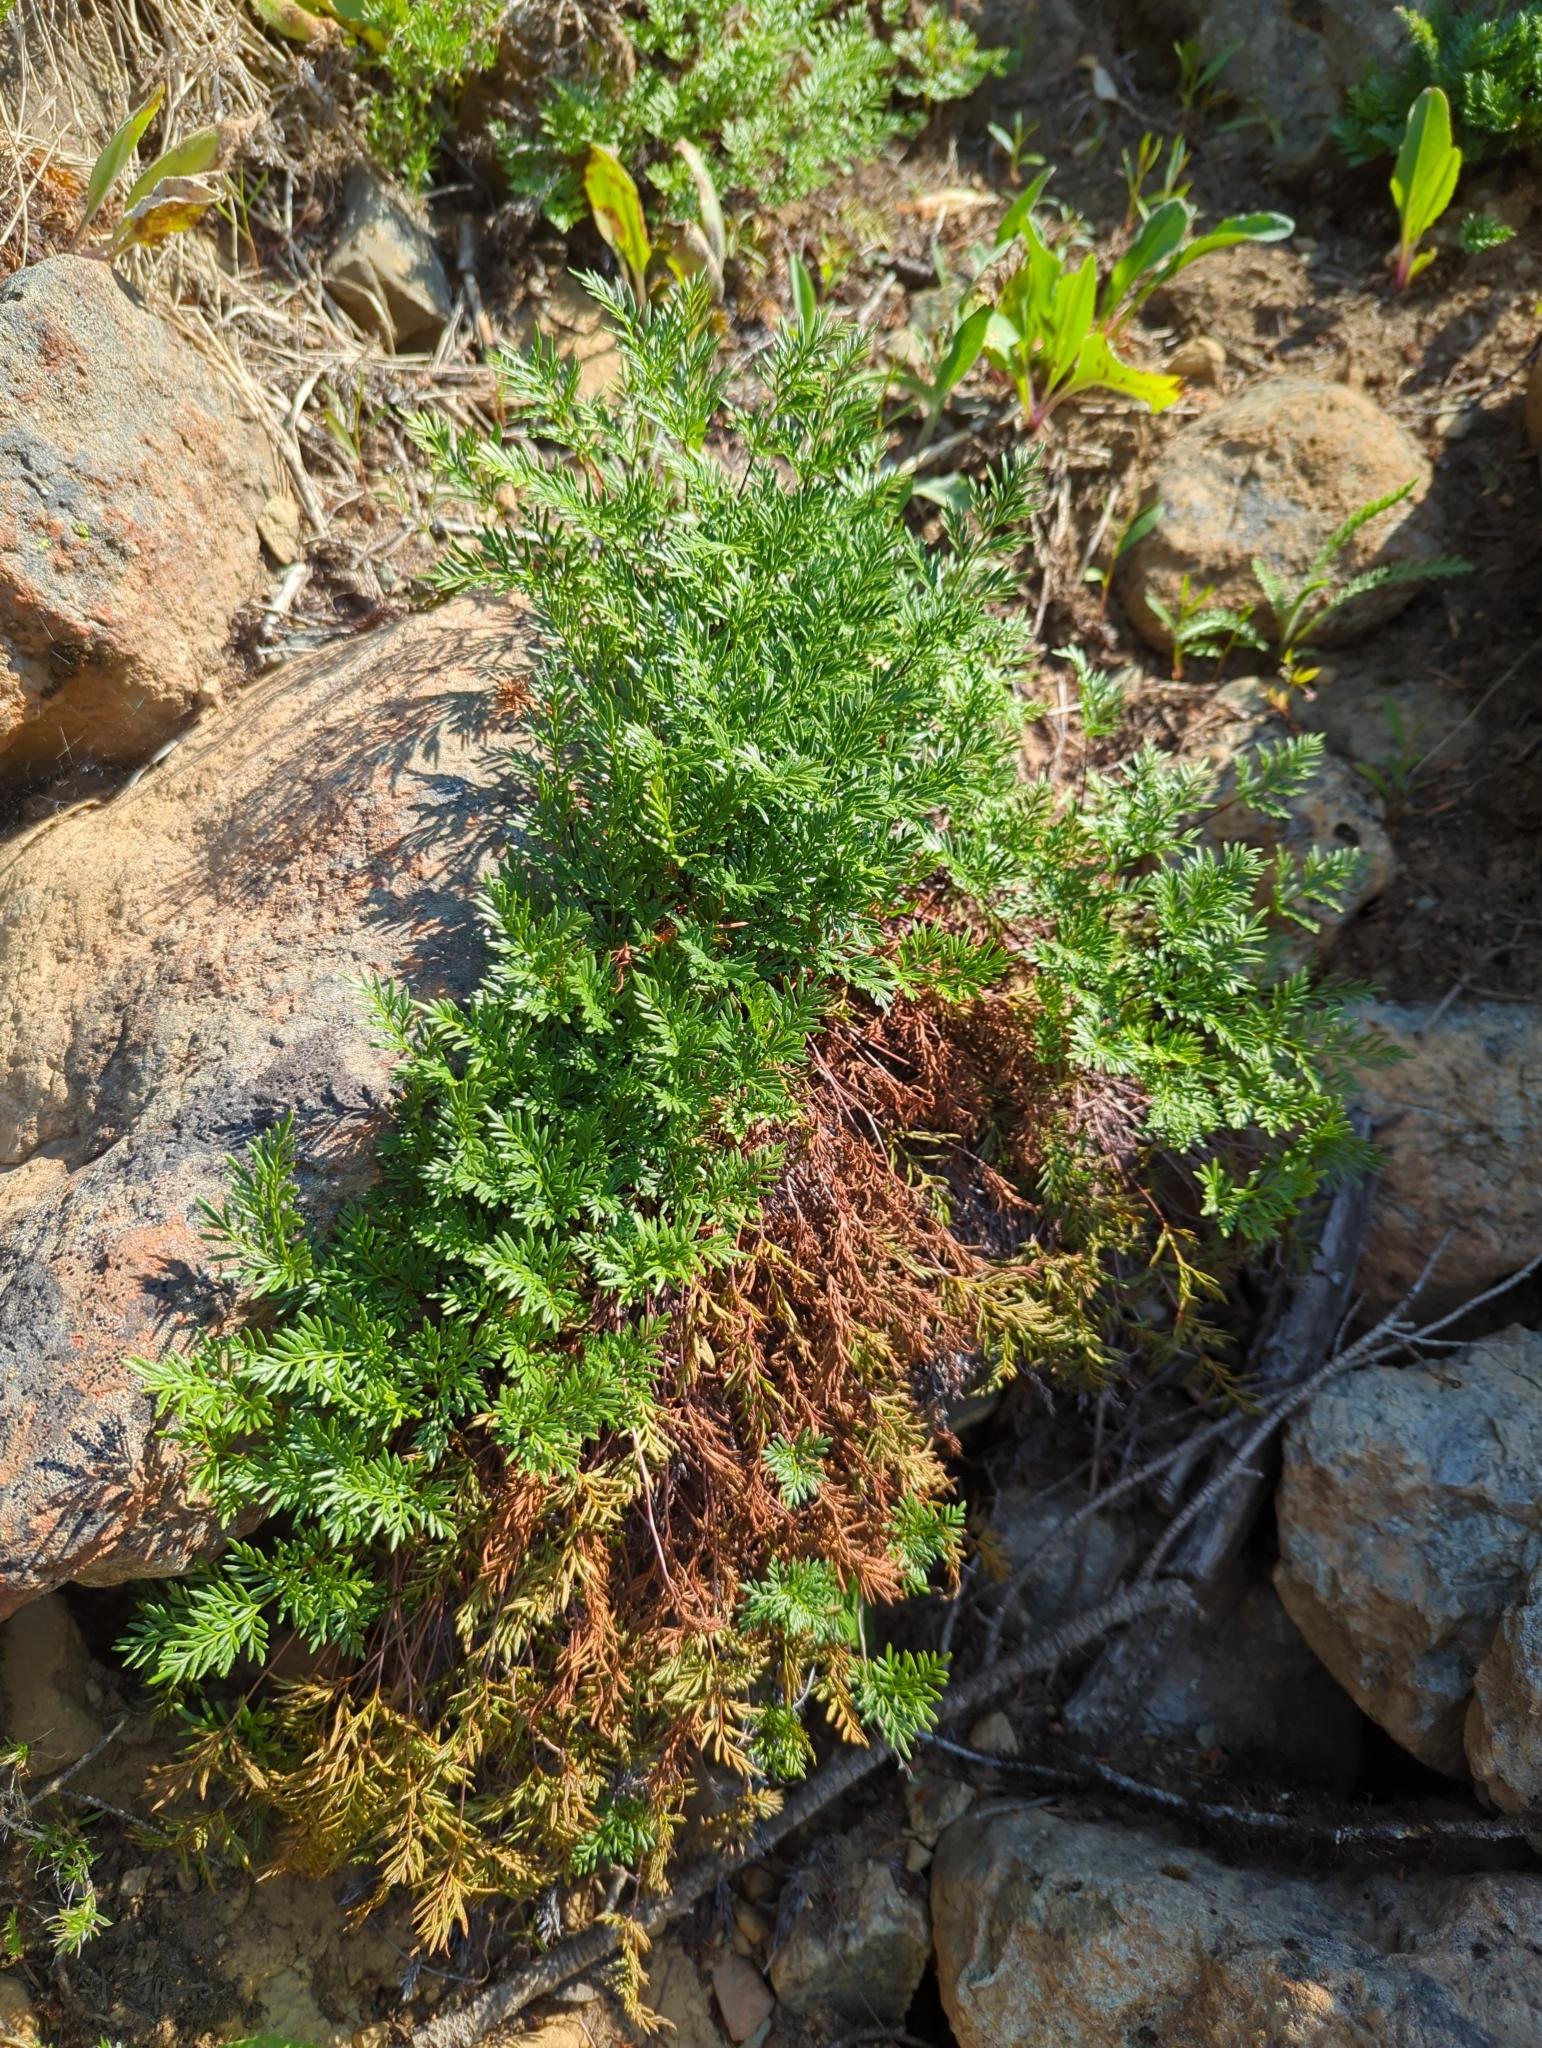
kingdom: Plantae
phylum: Tracheophyta
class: Polypodiopsida
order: Polypodiales
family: Pteridaceae
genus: Aspidotis
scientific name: Aspidotis densa
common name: Indian's dream
